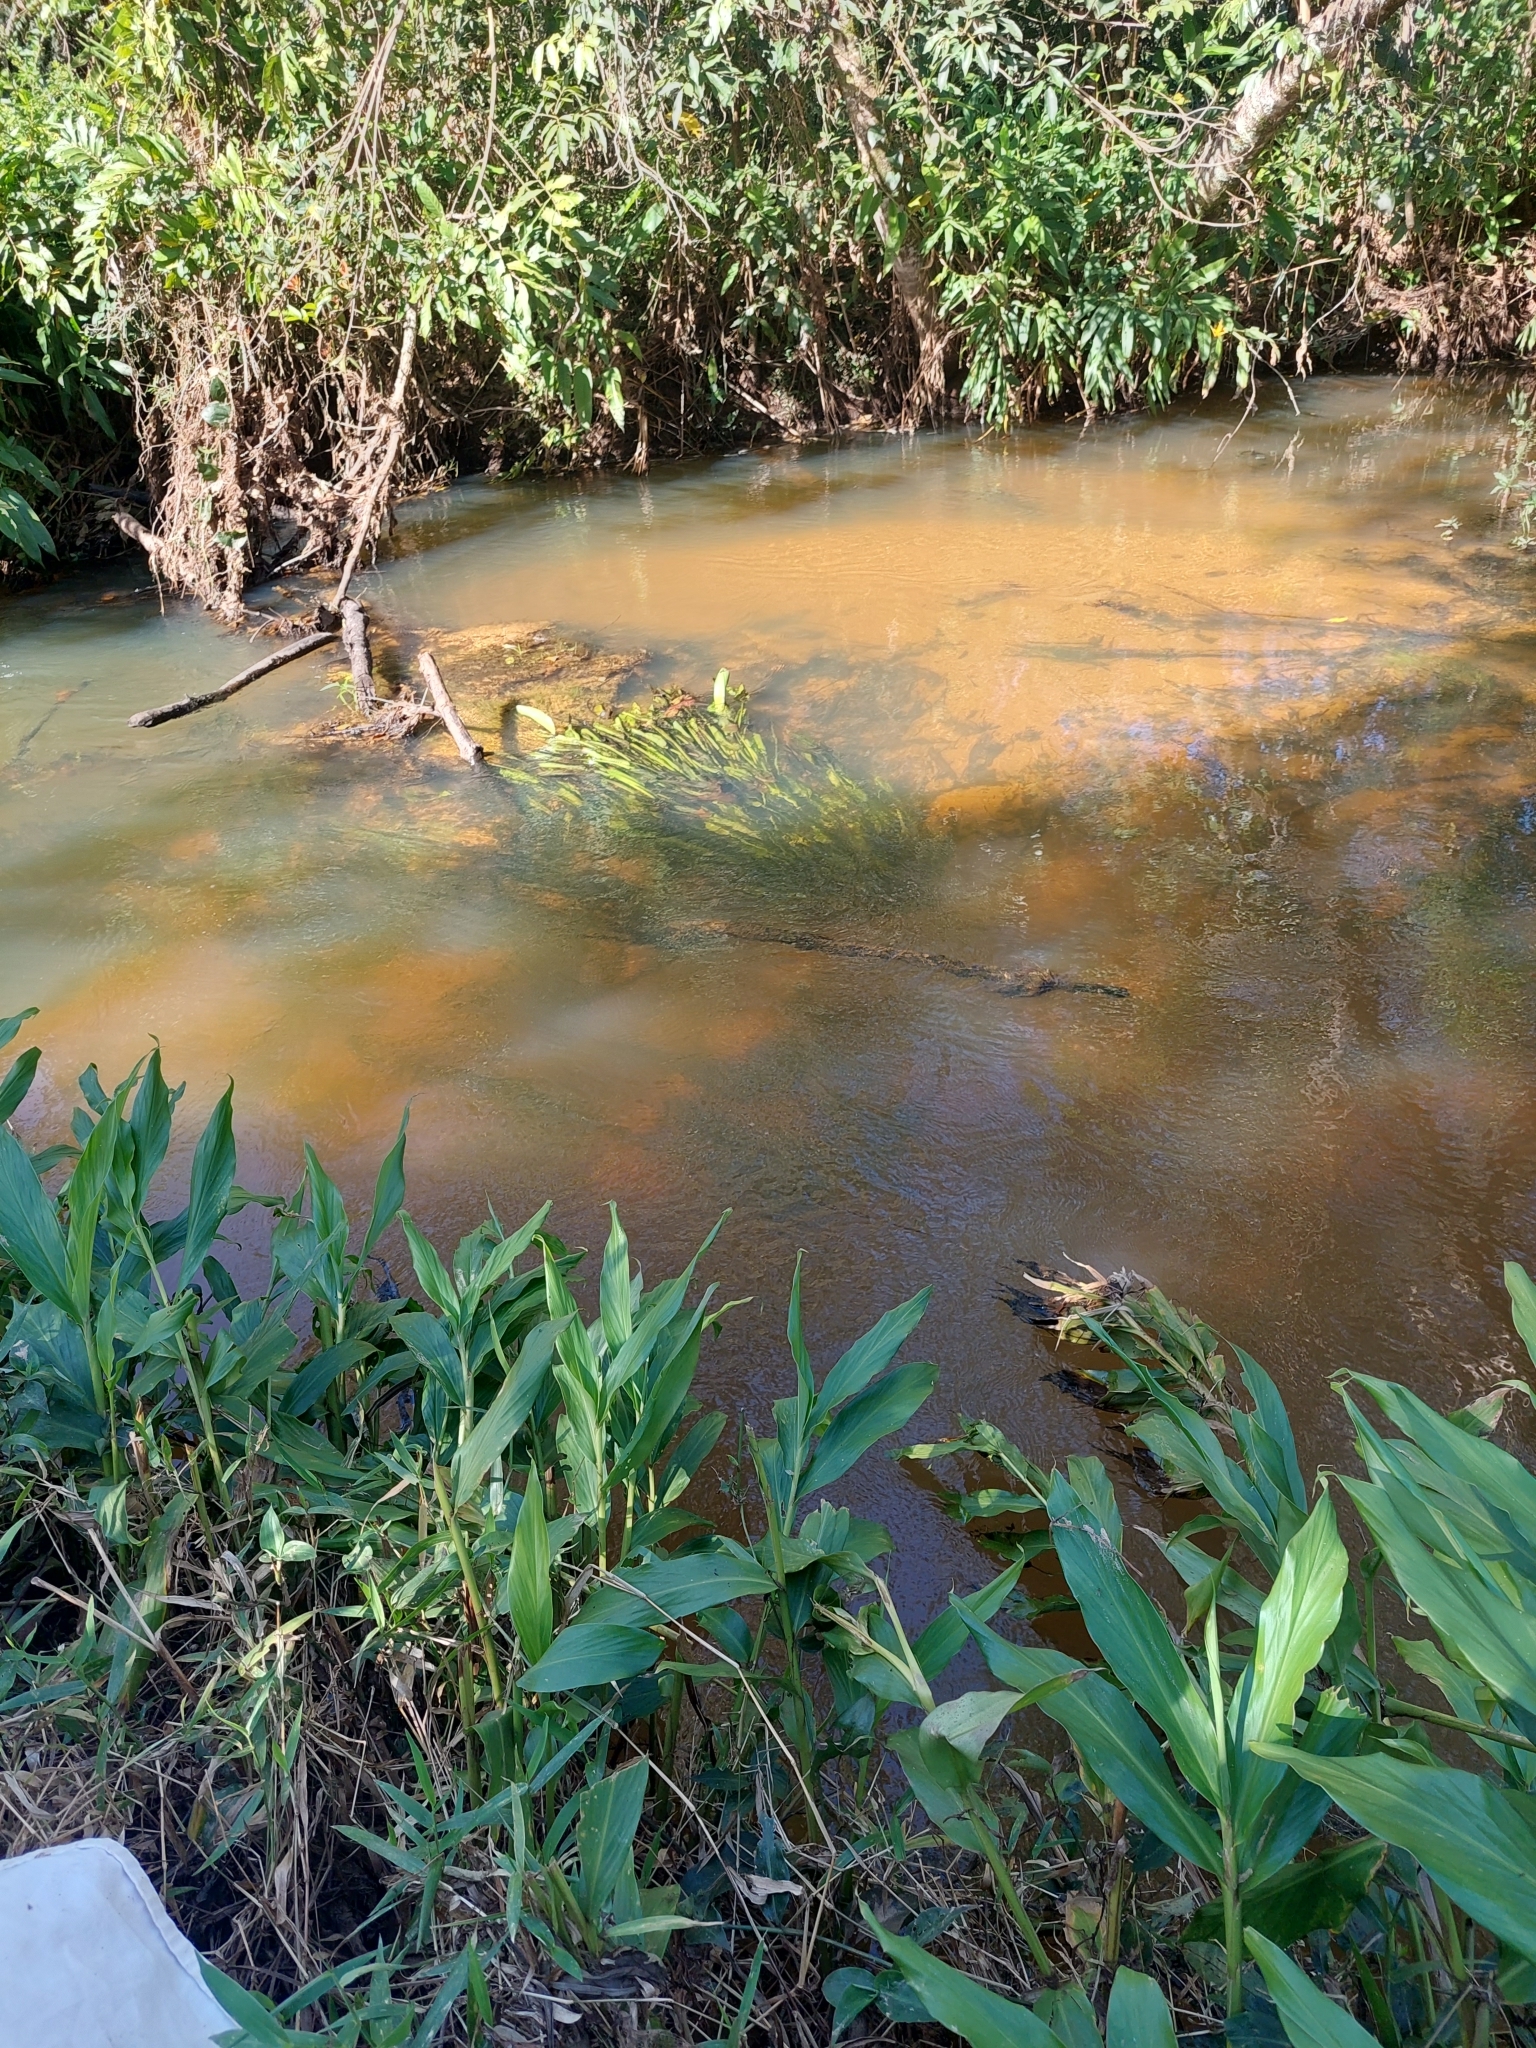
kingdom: Plantae
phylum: Tracheophyta
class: Liliopsida
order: Zingiberales
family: Zingiberaceae
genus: Hedychium
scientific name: Hedychium coronarium
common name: White garland-lily
